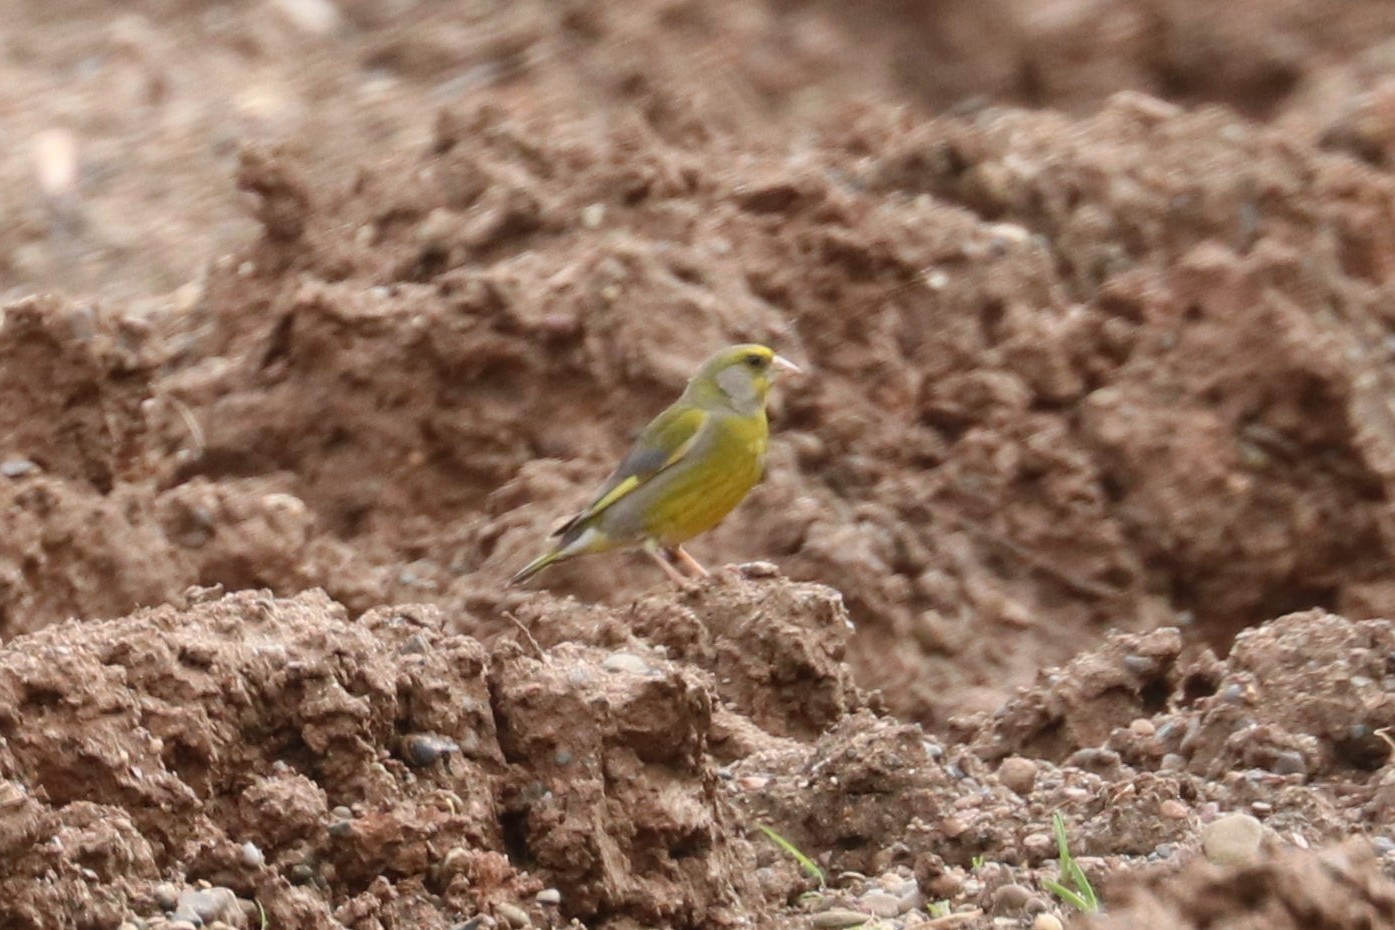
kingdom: Plantae
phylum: Tracheophyta
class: Liliopsida
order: Poales
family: Poaceae
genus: Chloris
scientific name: Chloris chloris
